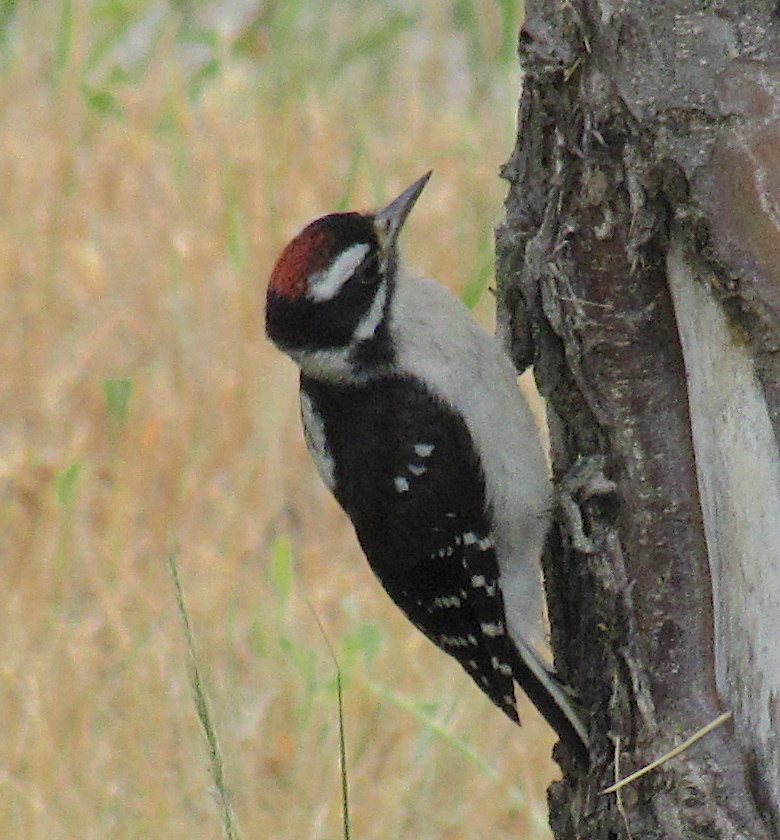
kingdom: Animalia
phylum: Chordata
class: Aves
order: Piciformes
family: Picidae
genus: Dryobates
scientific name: Dryobates pubescens
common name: Downy woodpecker
